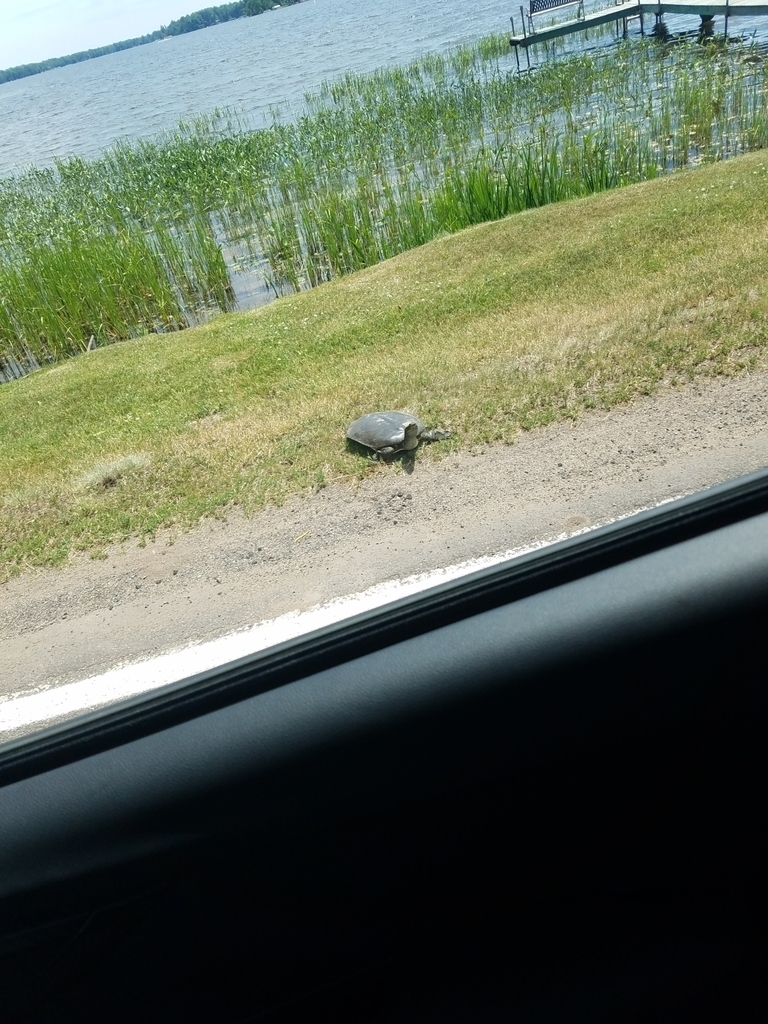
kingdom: Animalia
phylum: Chordata
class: Testudines
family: Trionychidae
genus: Apalone
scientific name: Apalone spinifera
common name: Spiny softshell turtle
